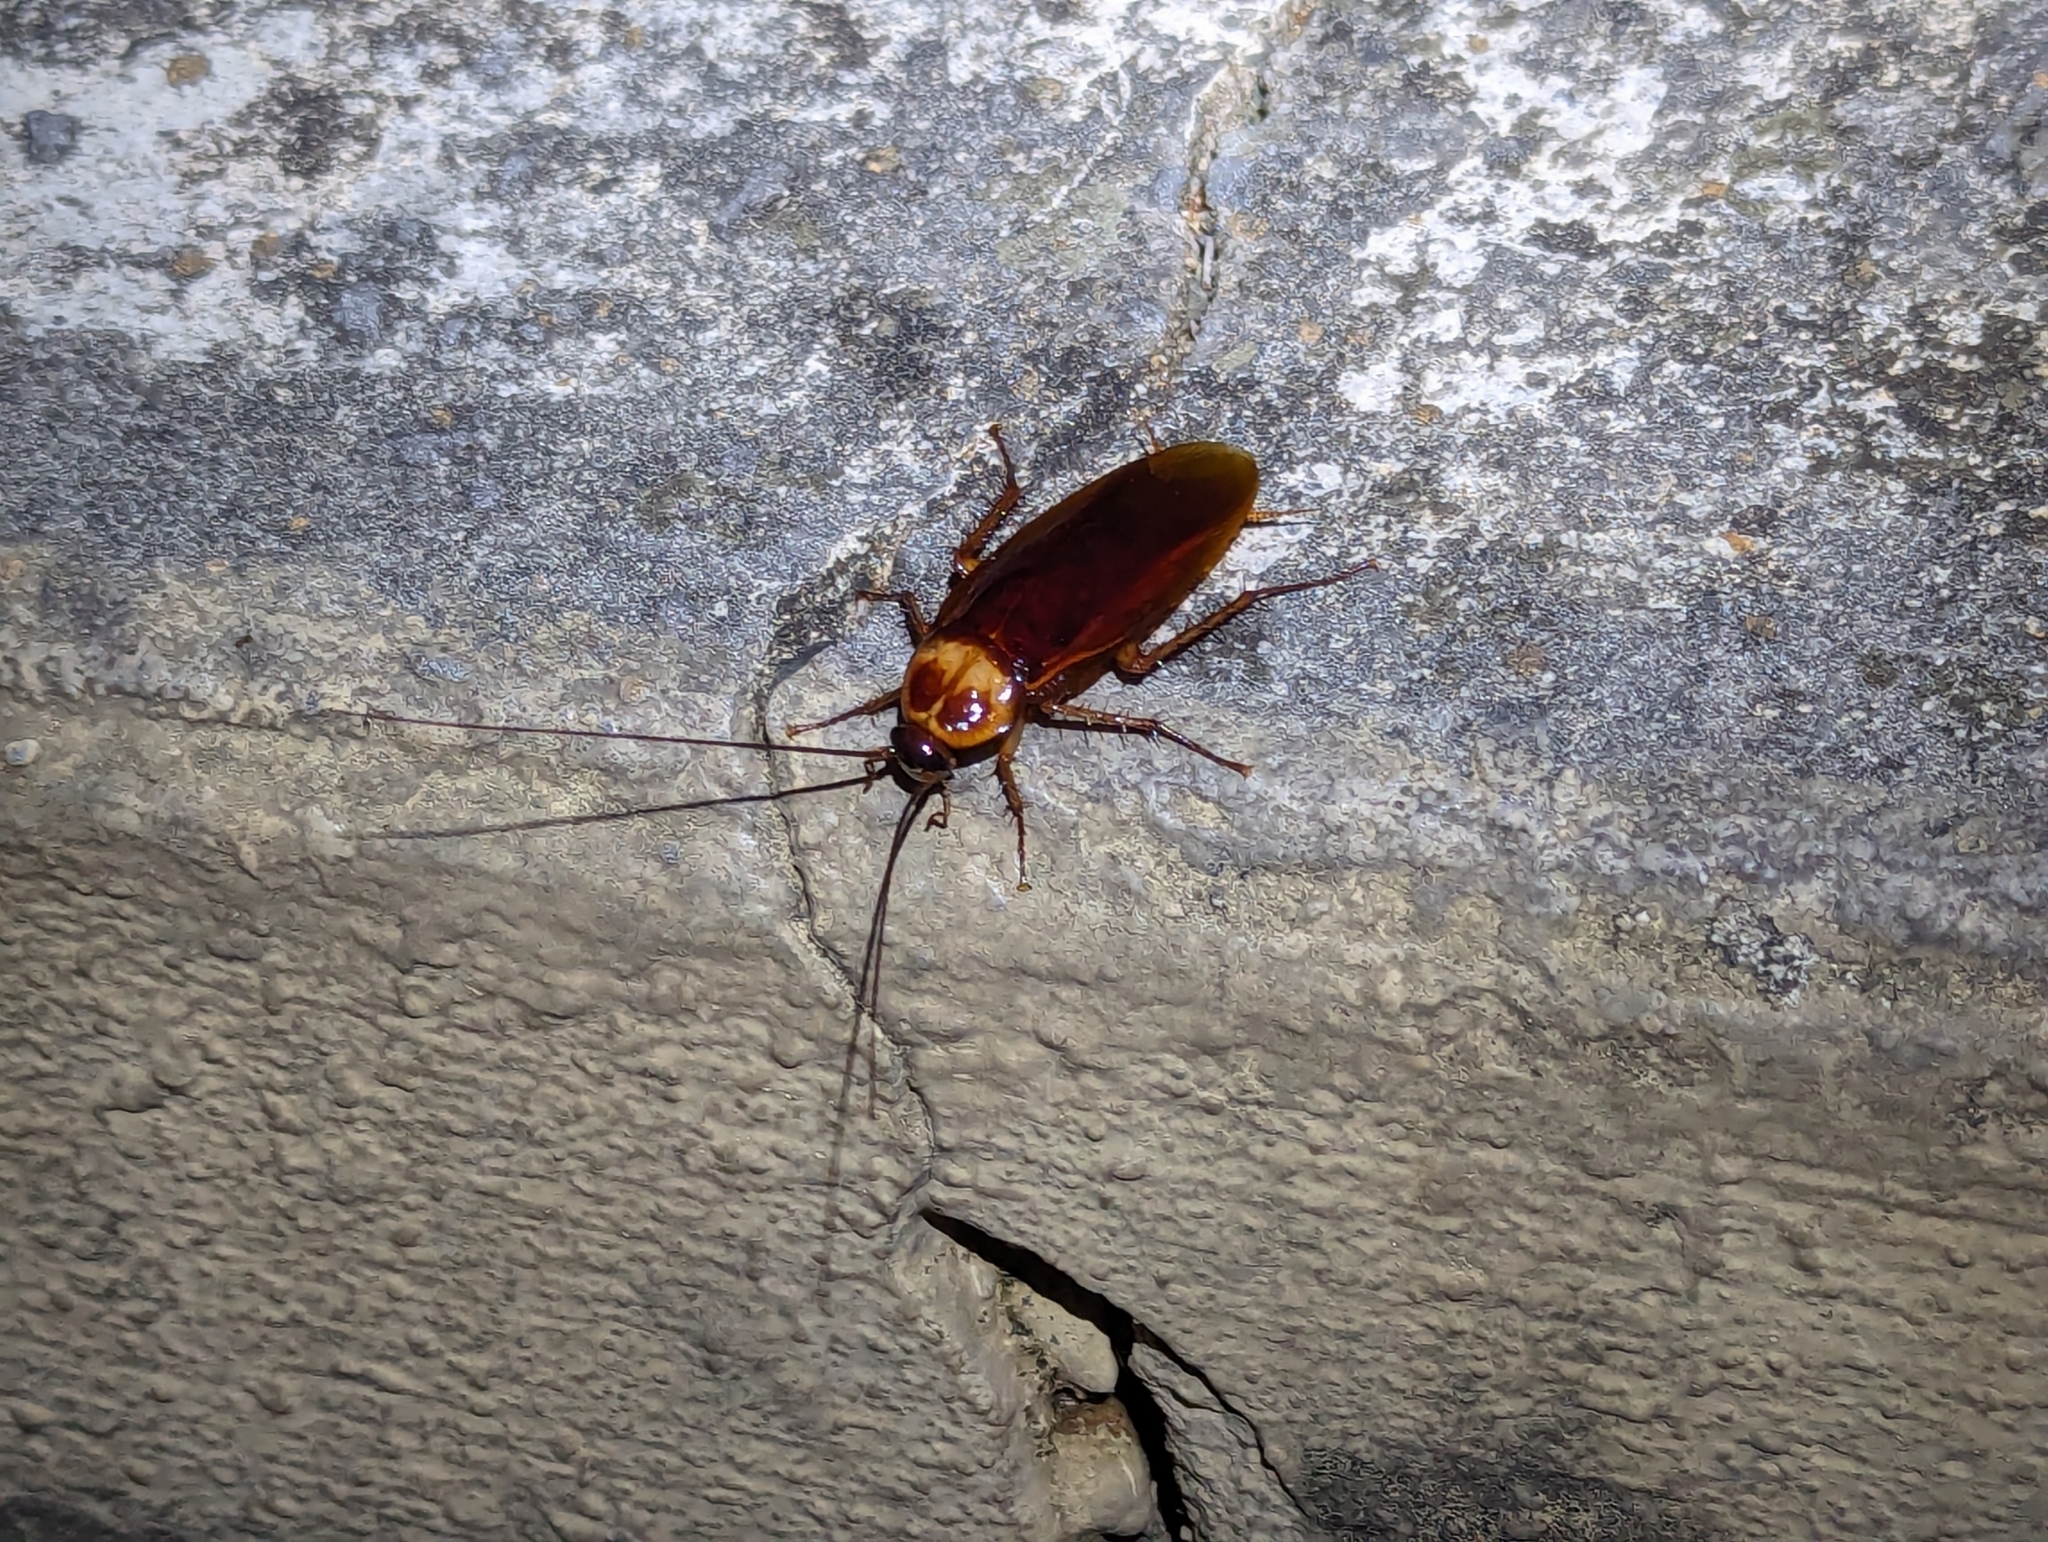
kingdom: Animalia
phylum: Arthropoda
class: Insecta
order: Blattodea
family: Blattidae
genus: Periplaneta
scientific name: Periplaneta americana
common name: American cockroach
